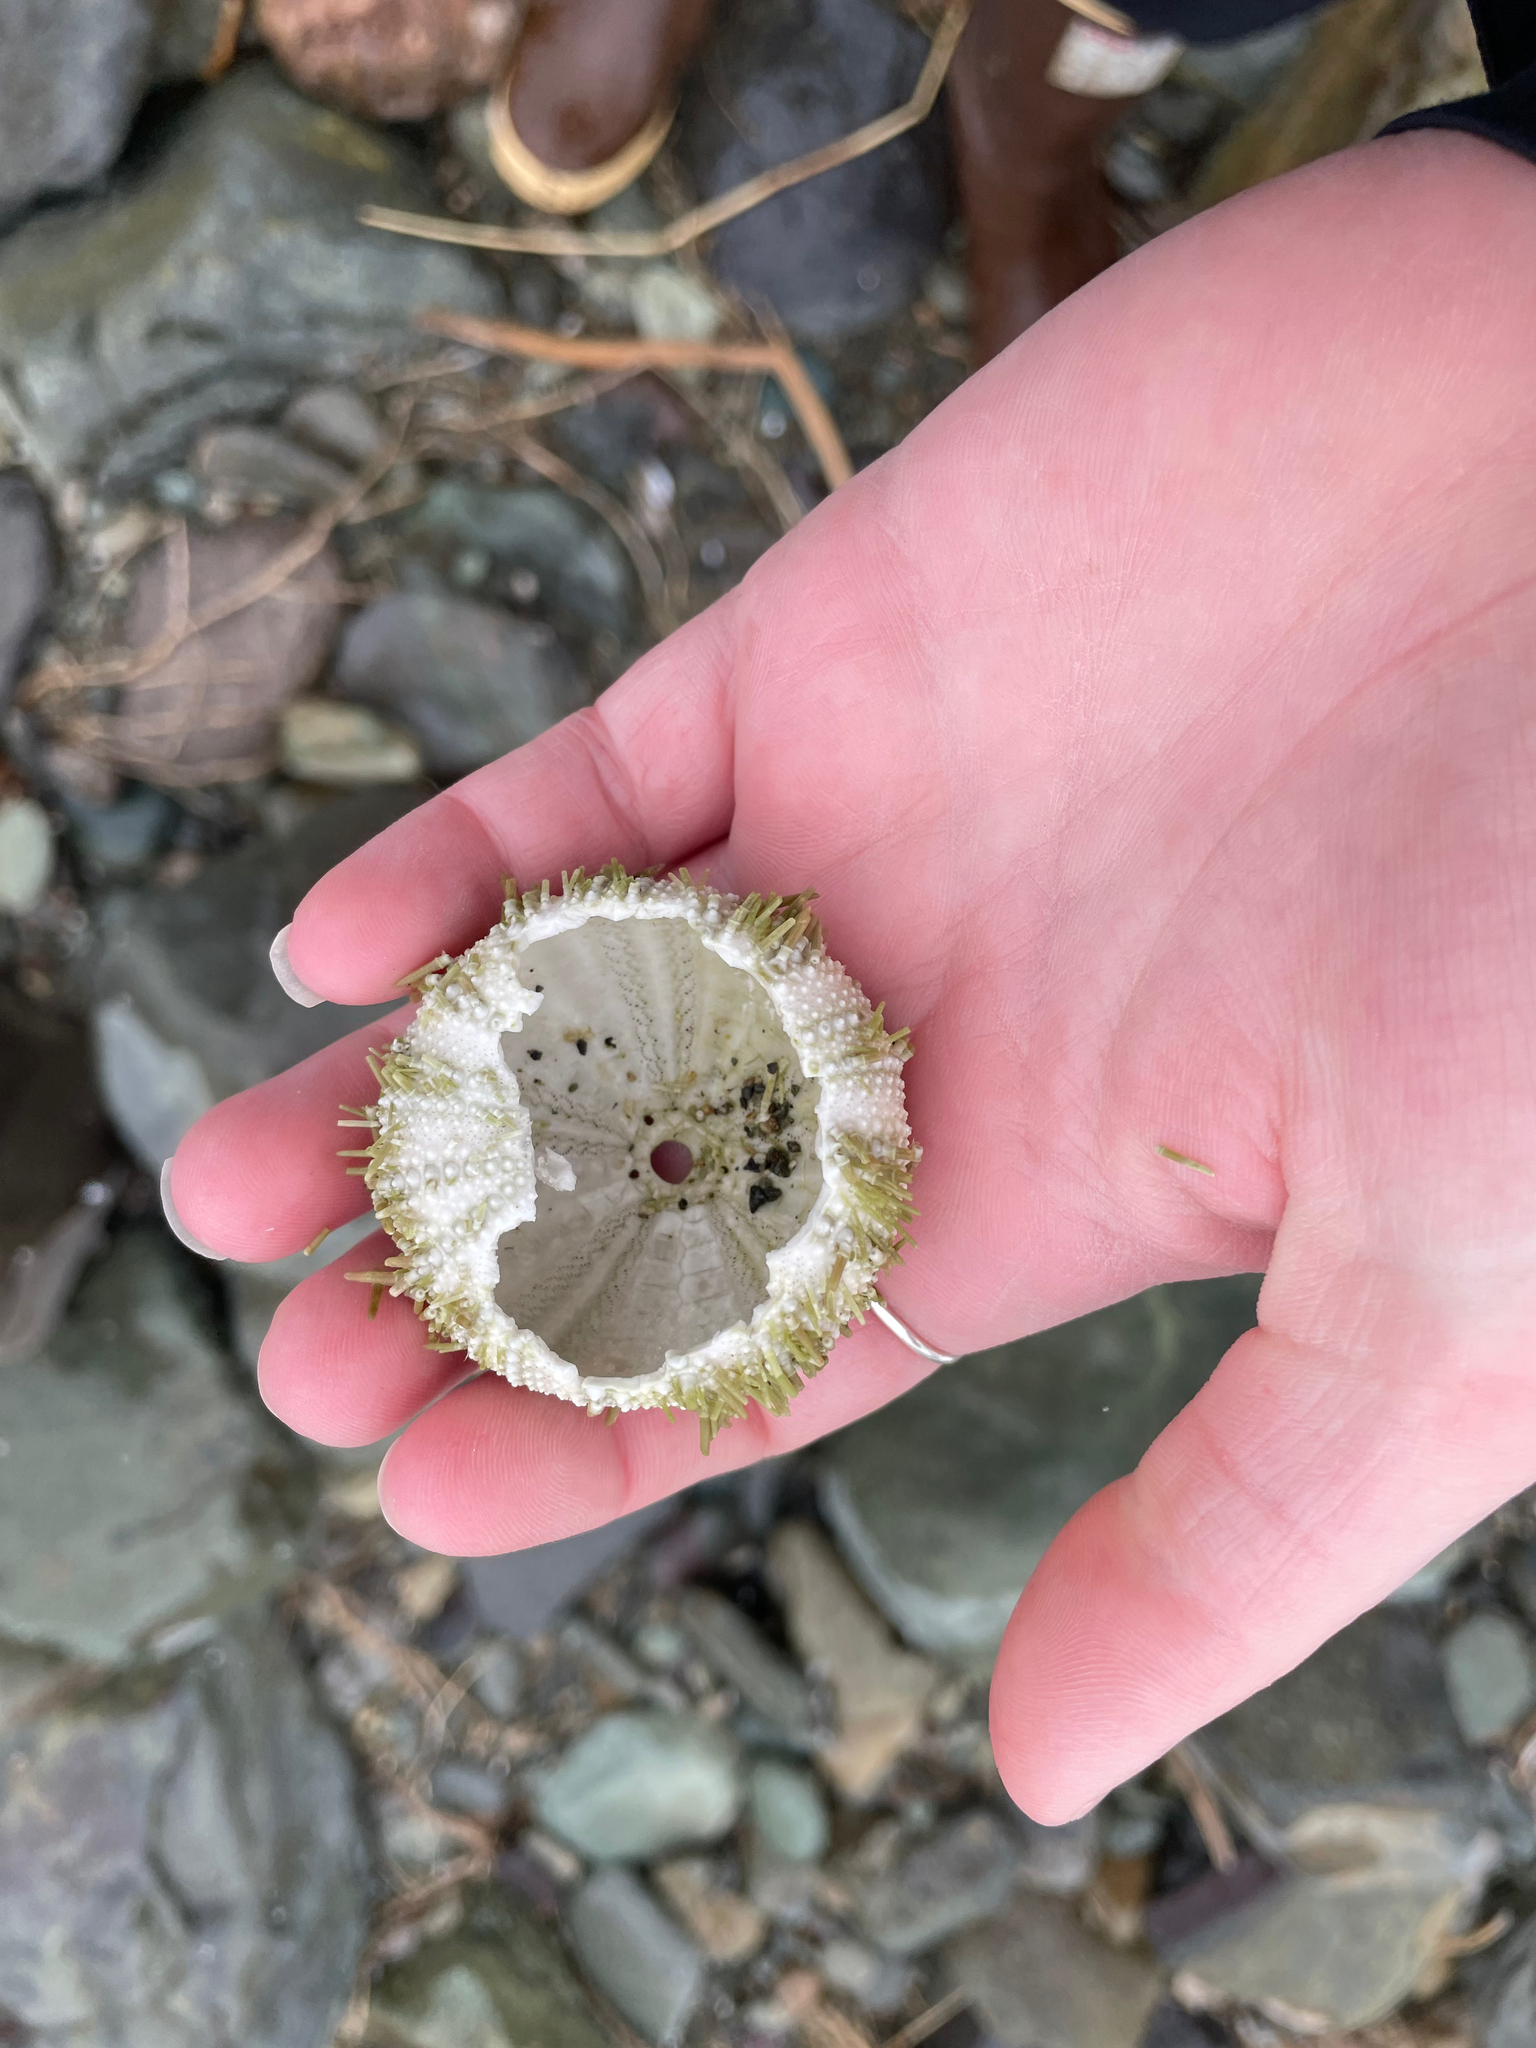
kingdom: Animalia
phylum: Echinodermata
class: Echinoidea
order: Camarodonta
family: Strongylocentrotidae
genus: Strongylocentrotus
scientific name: Strongylocentrotus droebachiensis
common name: Northern sea urchin
